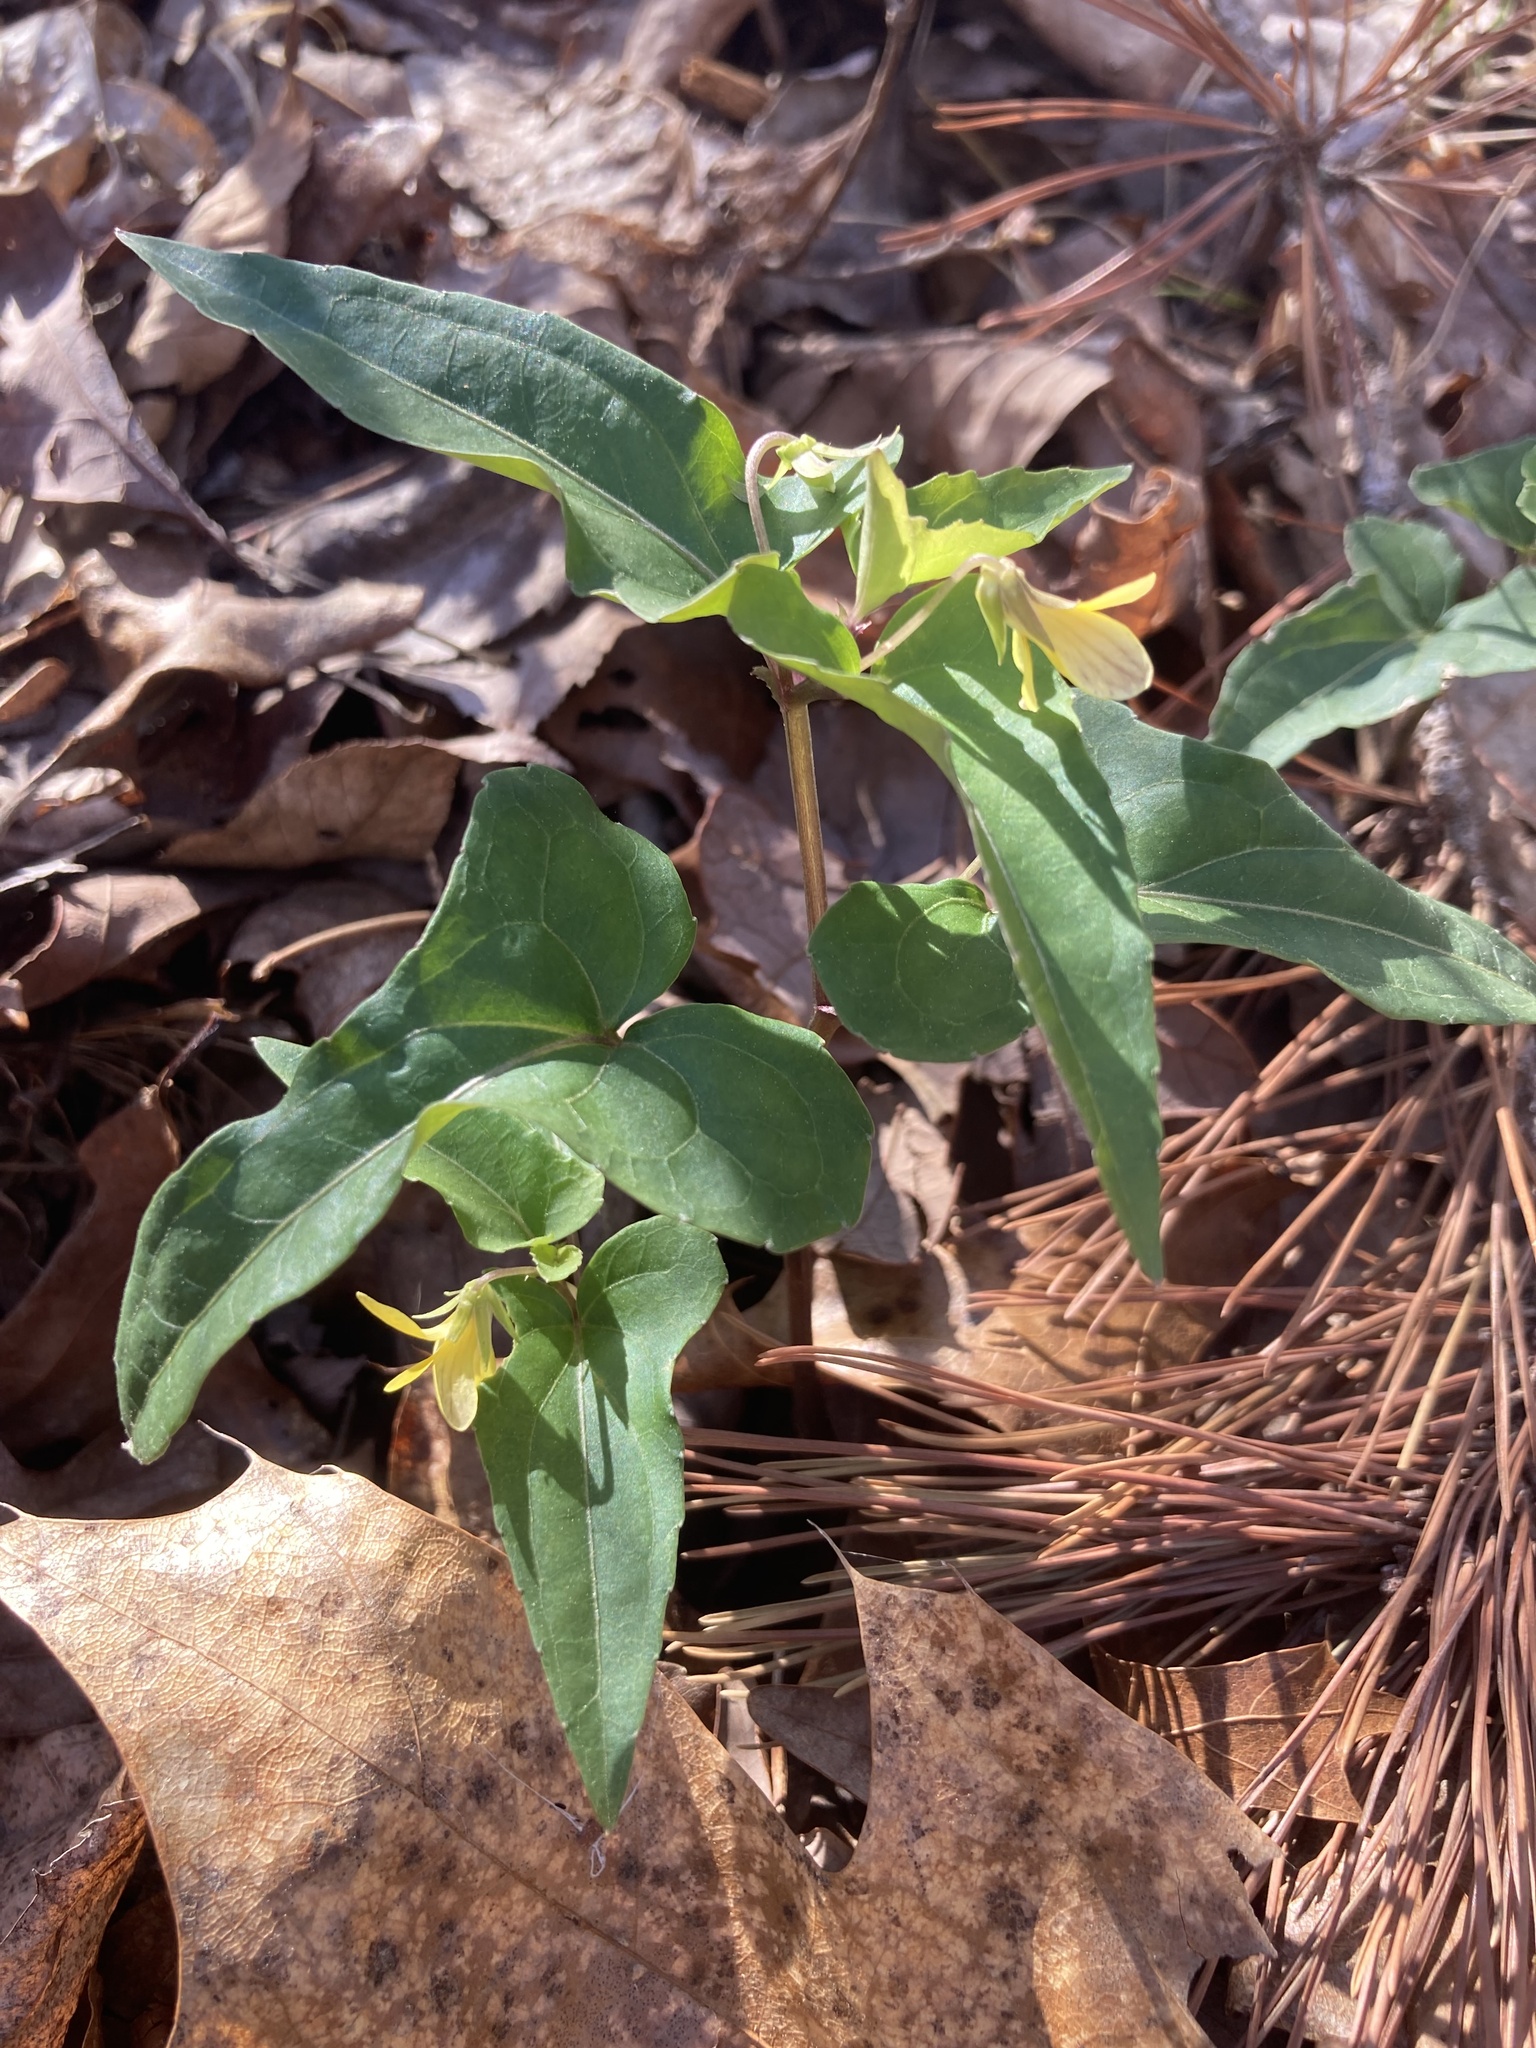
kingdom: Plantae
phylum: Tracheophyta
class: Magnoliopsida
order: Malpighiales
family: Violaceae
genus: Viola
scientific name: Viola hastata
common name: Spear-leaf violet
